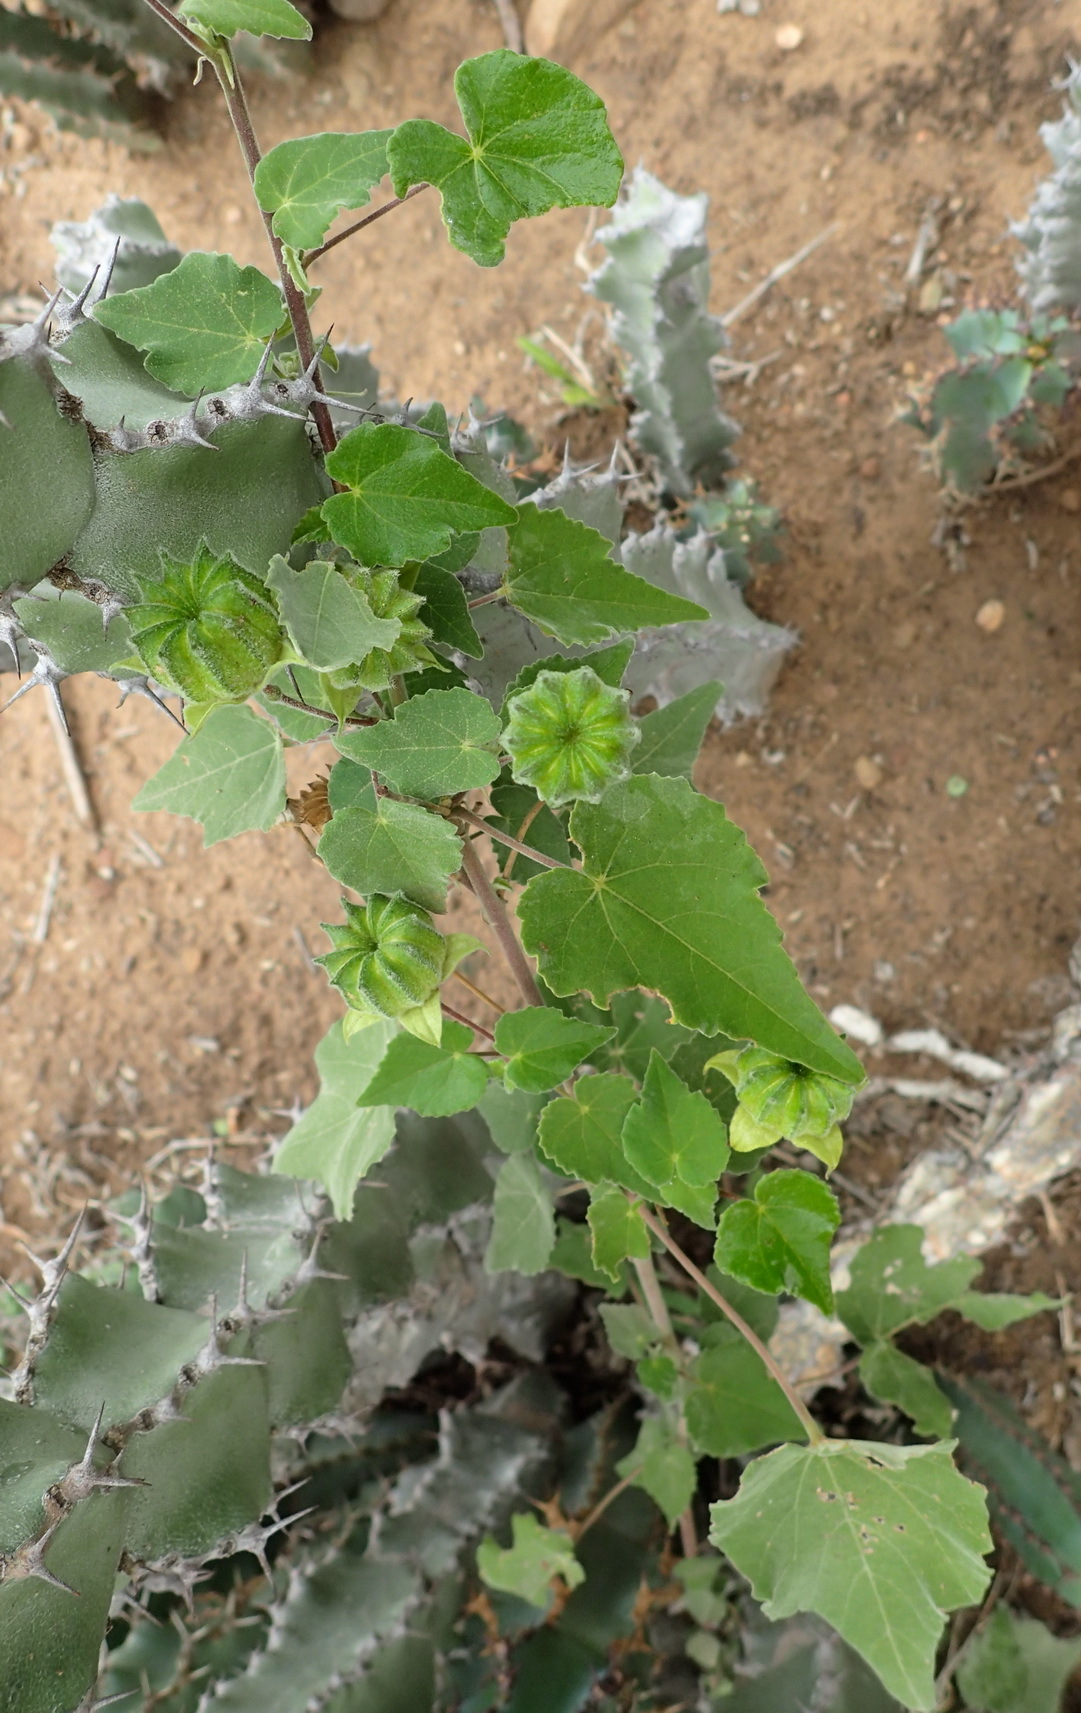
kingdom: Plantae
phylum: Tracheophyta
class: Magnoliopsida
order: Malvales
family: Malvaceae
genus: Abutilon
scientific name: Abutilon sonneratianum
